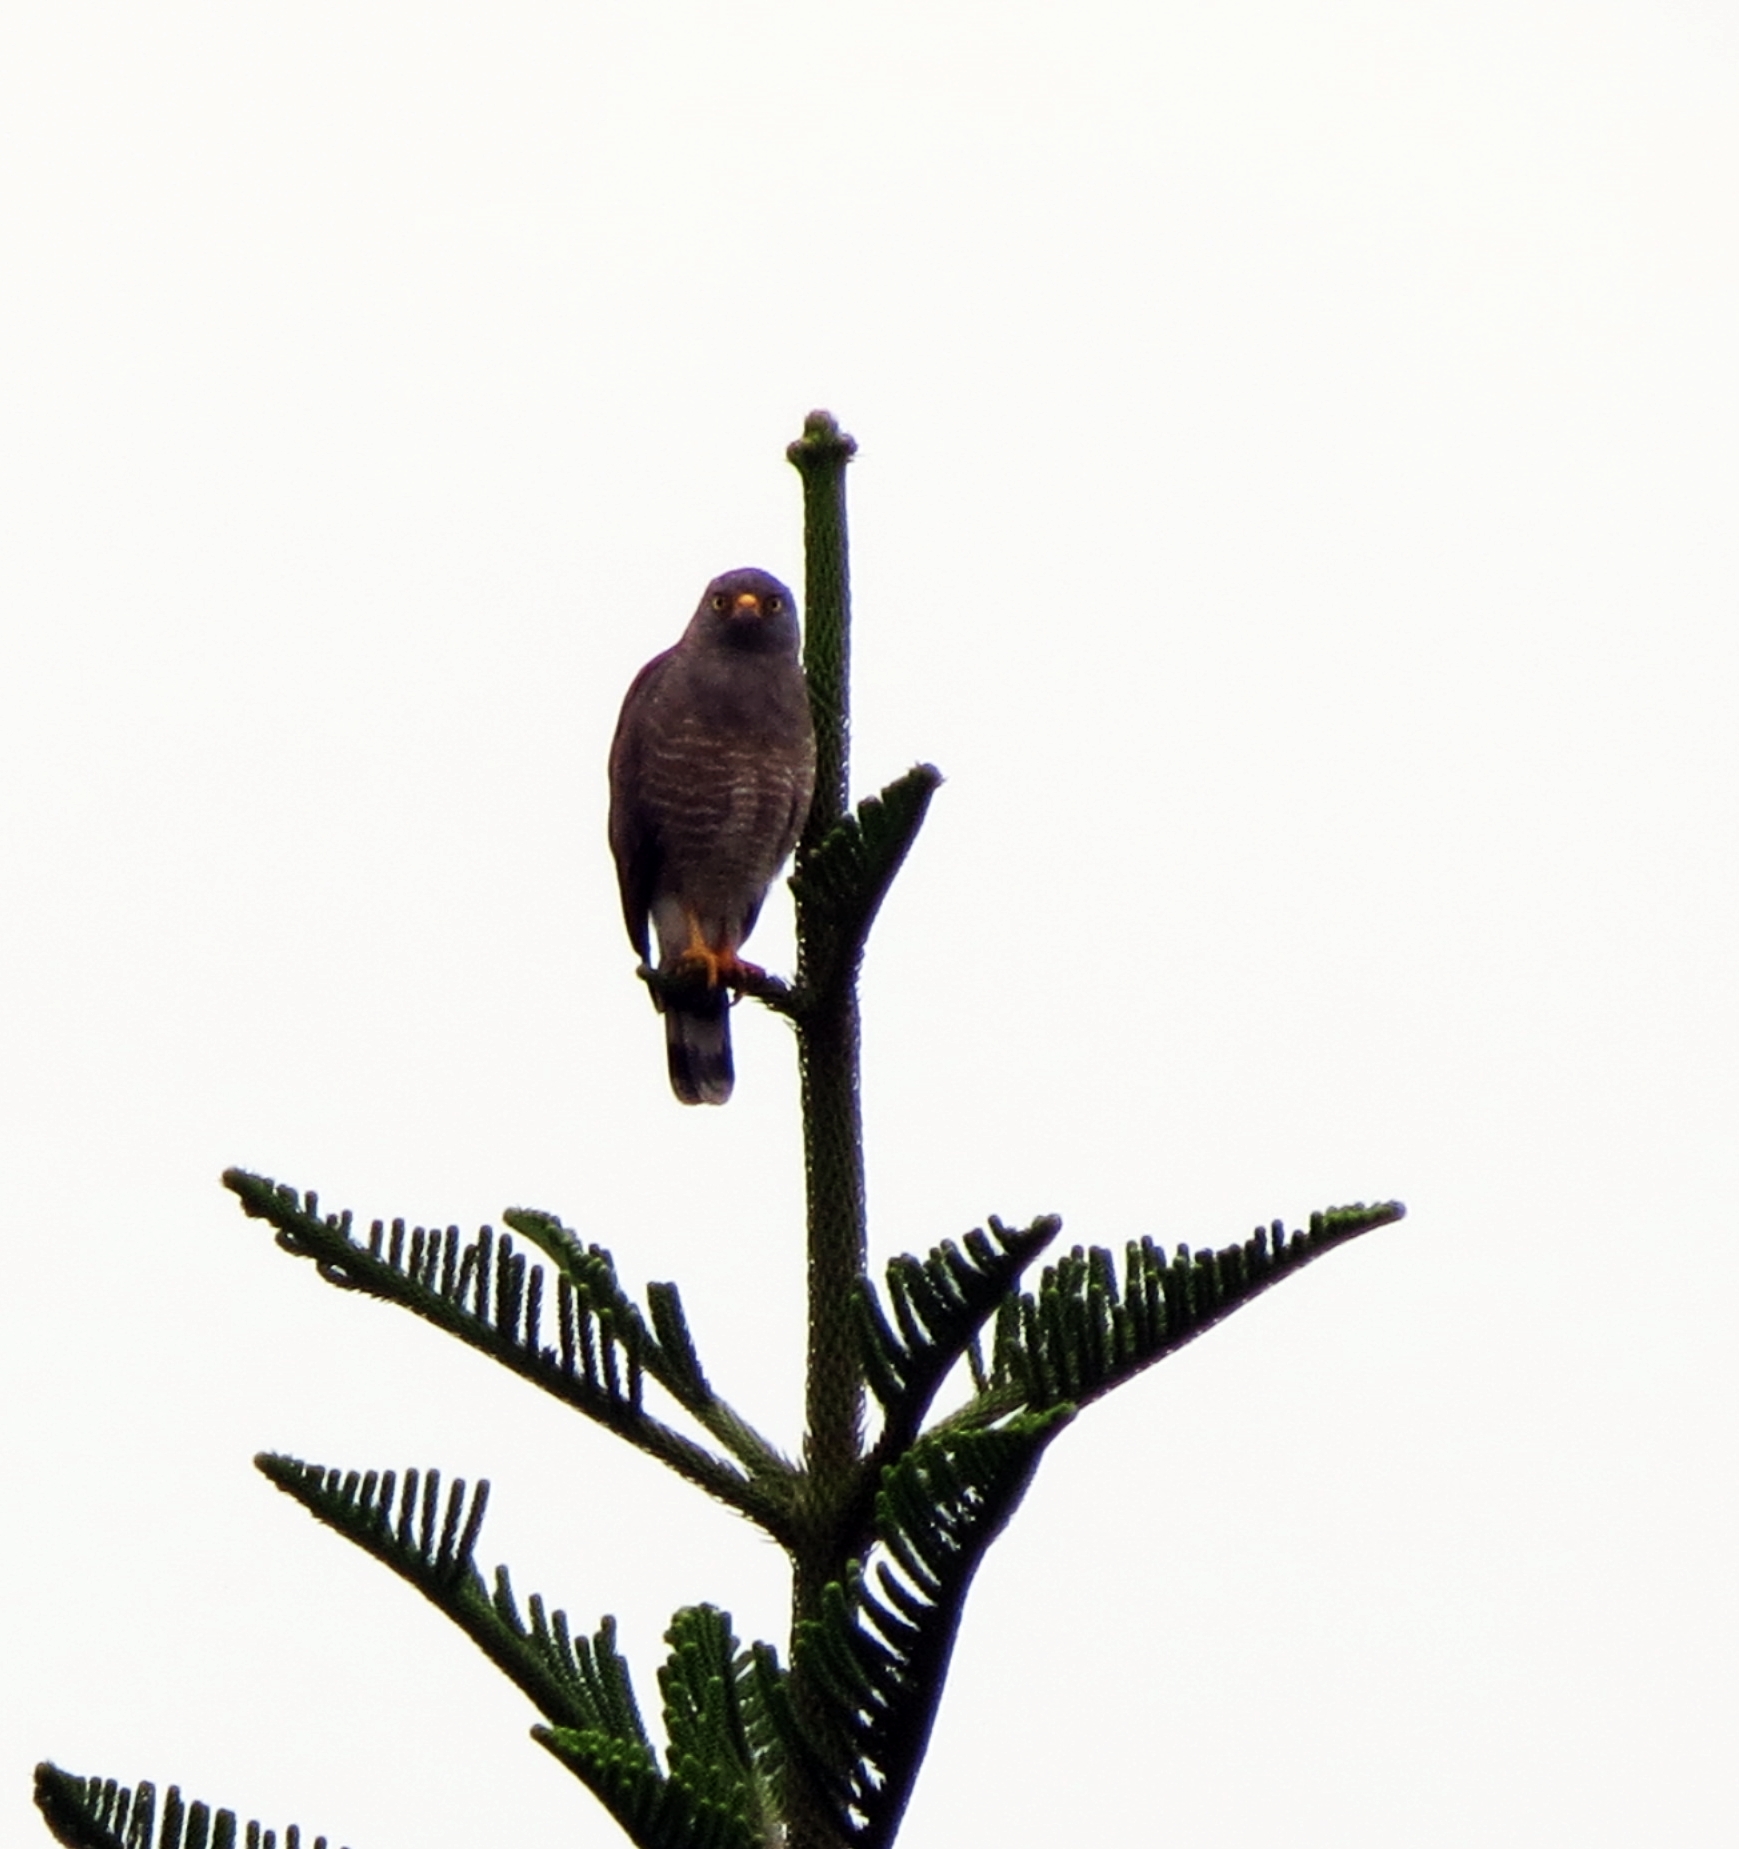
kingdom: Animalia
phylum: Chordata
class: Aves
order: Accipitriformes
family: Accipitridae
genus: Rupornis
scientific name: Rupornis magnirostris
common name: Roadside hawk
